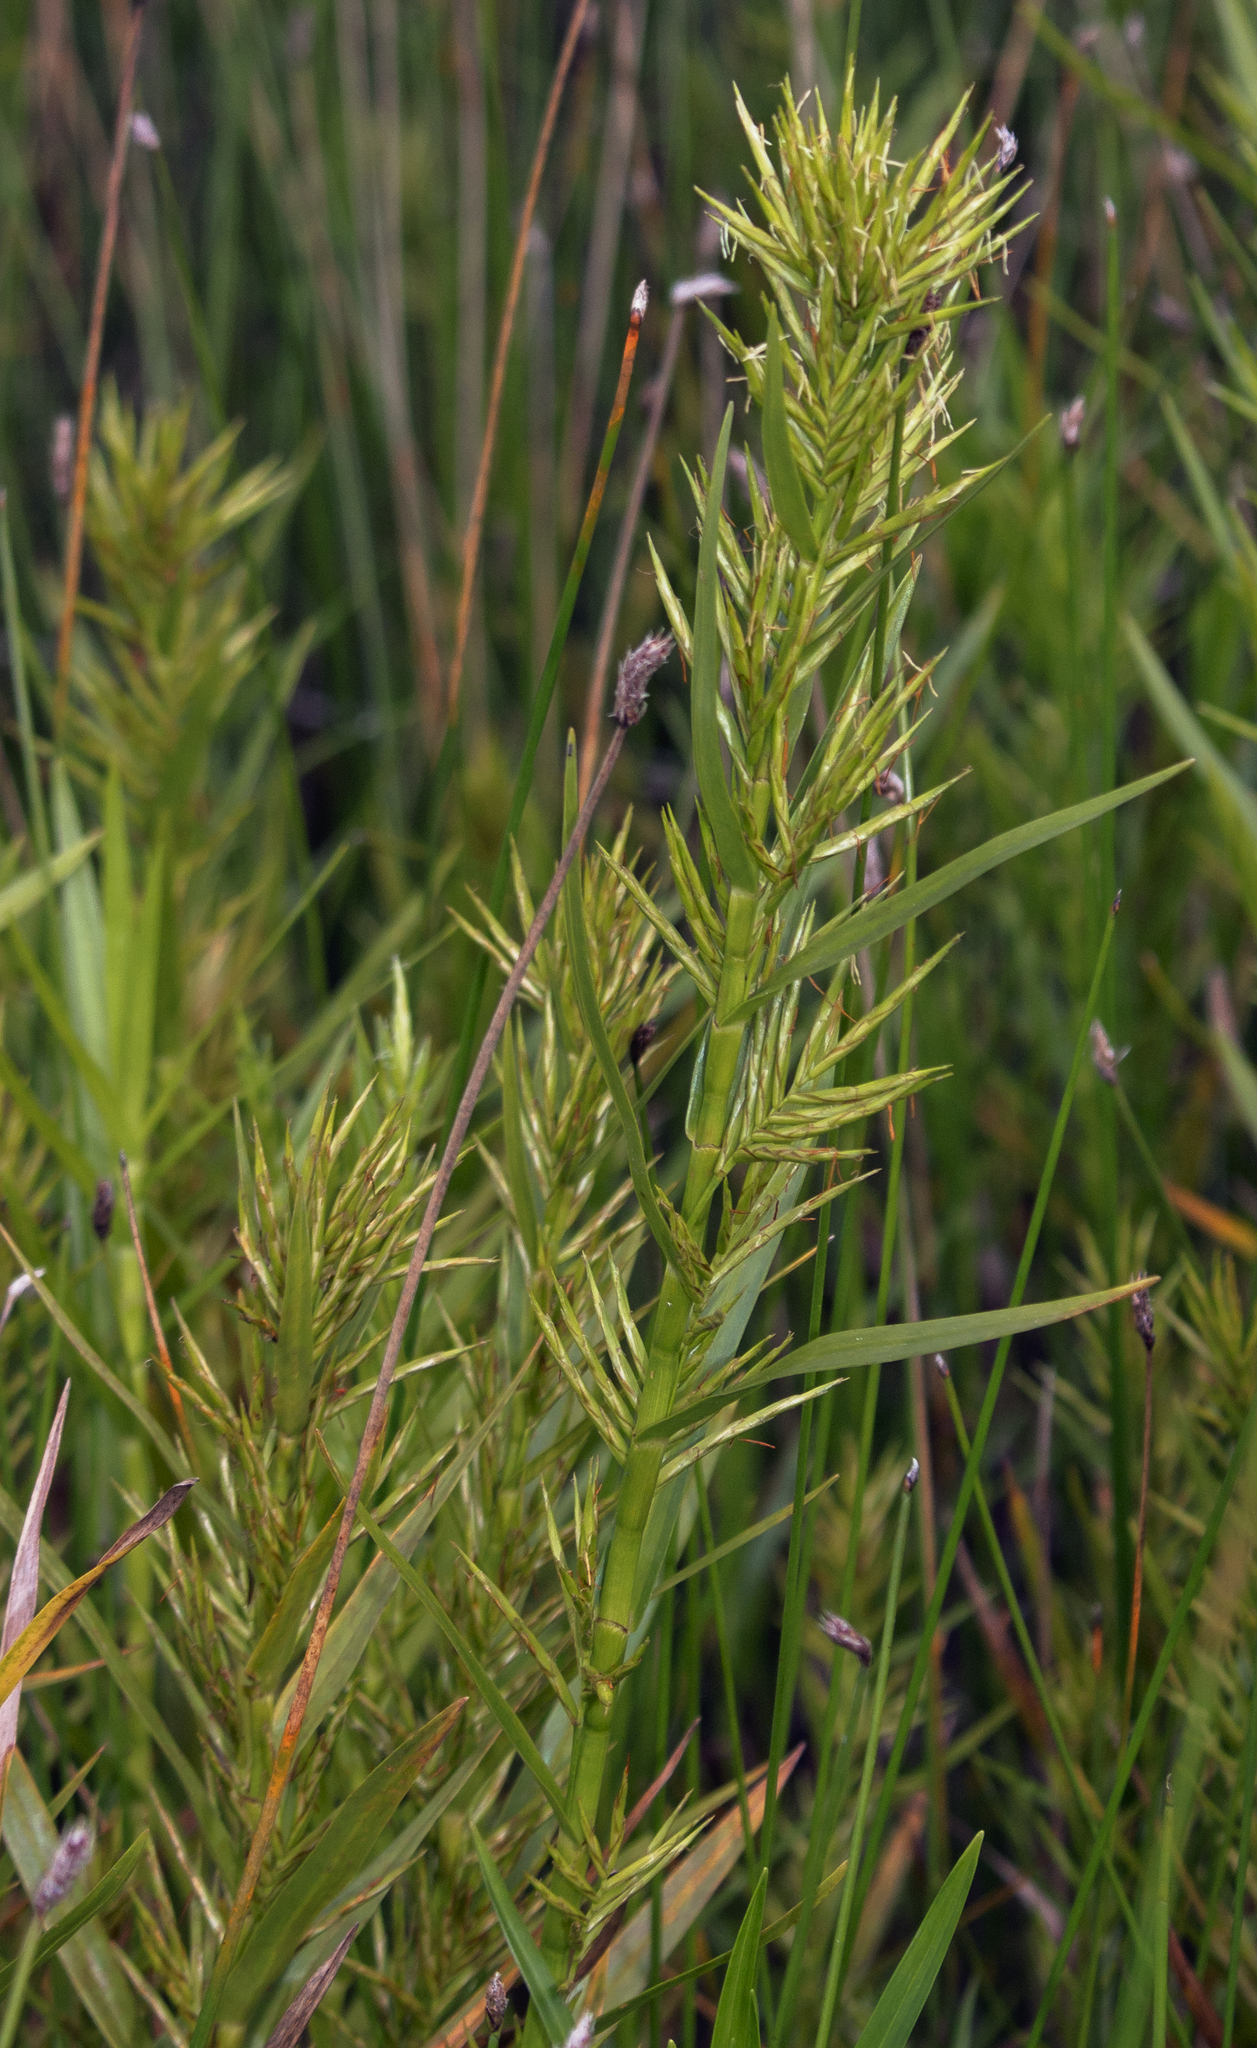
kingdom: Plantae
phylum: Tracheophyta
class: Liliopsida
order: Poales
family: Cyperaceae
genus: Dulichium
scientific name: Dulichium arundinaceum
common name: Three-way sedge
